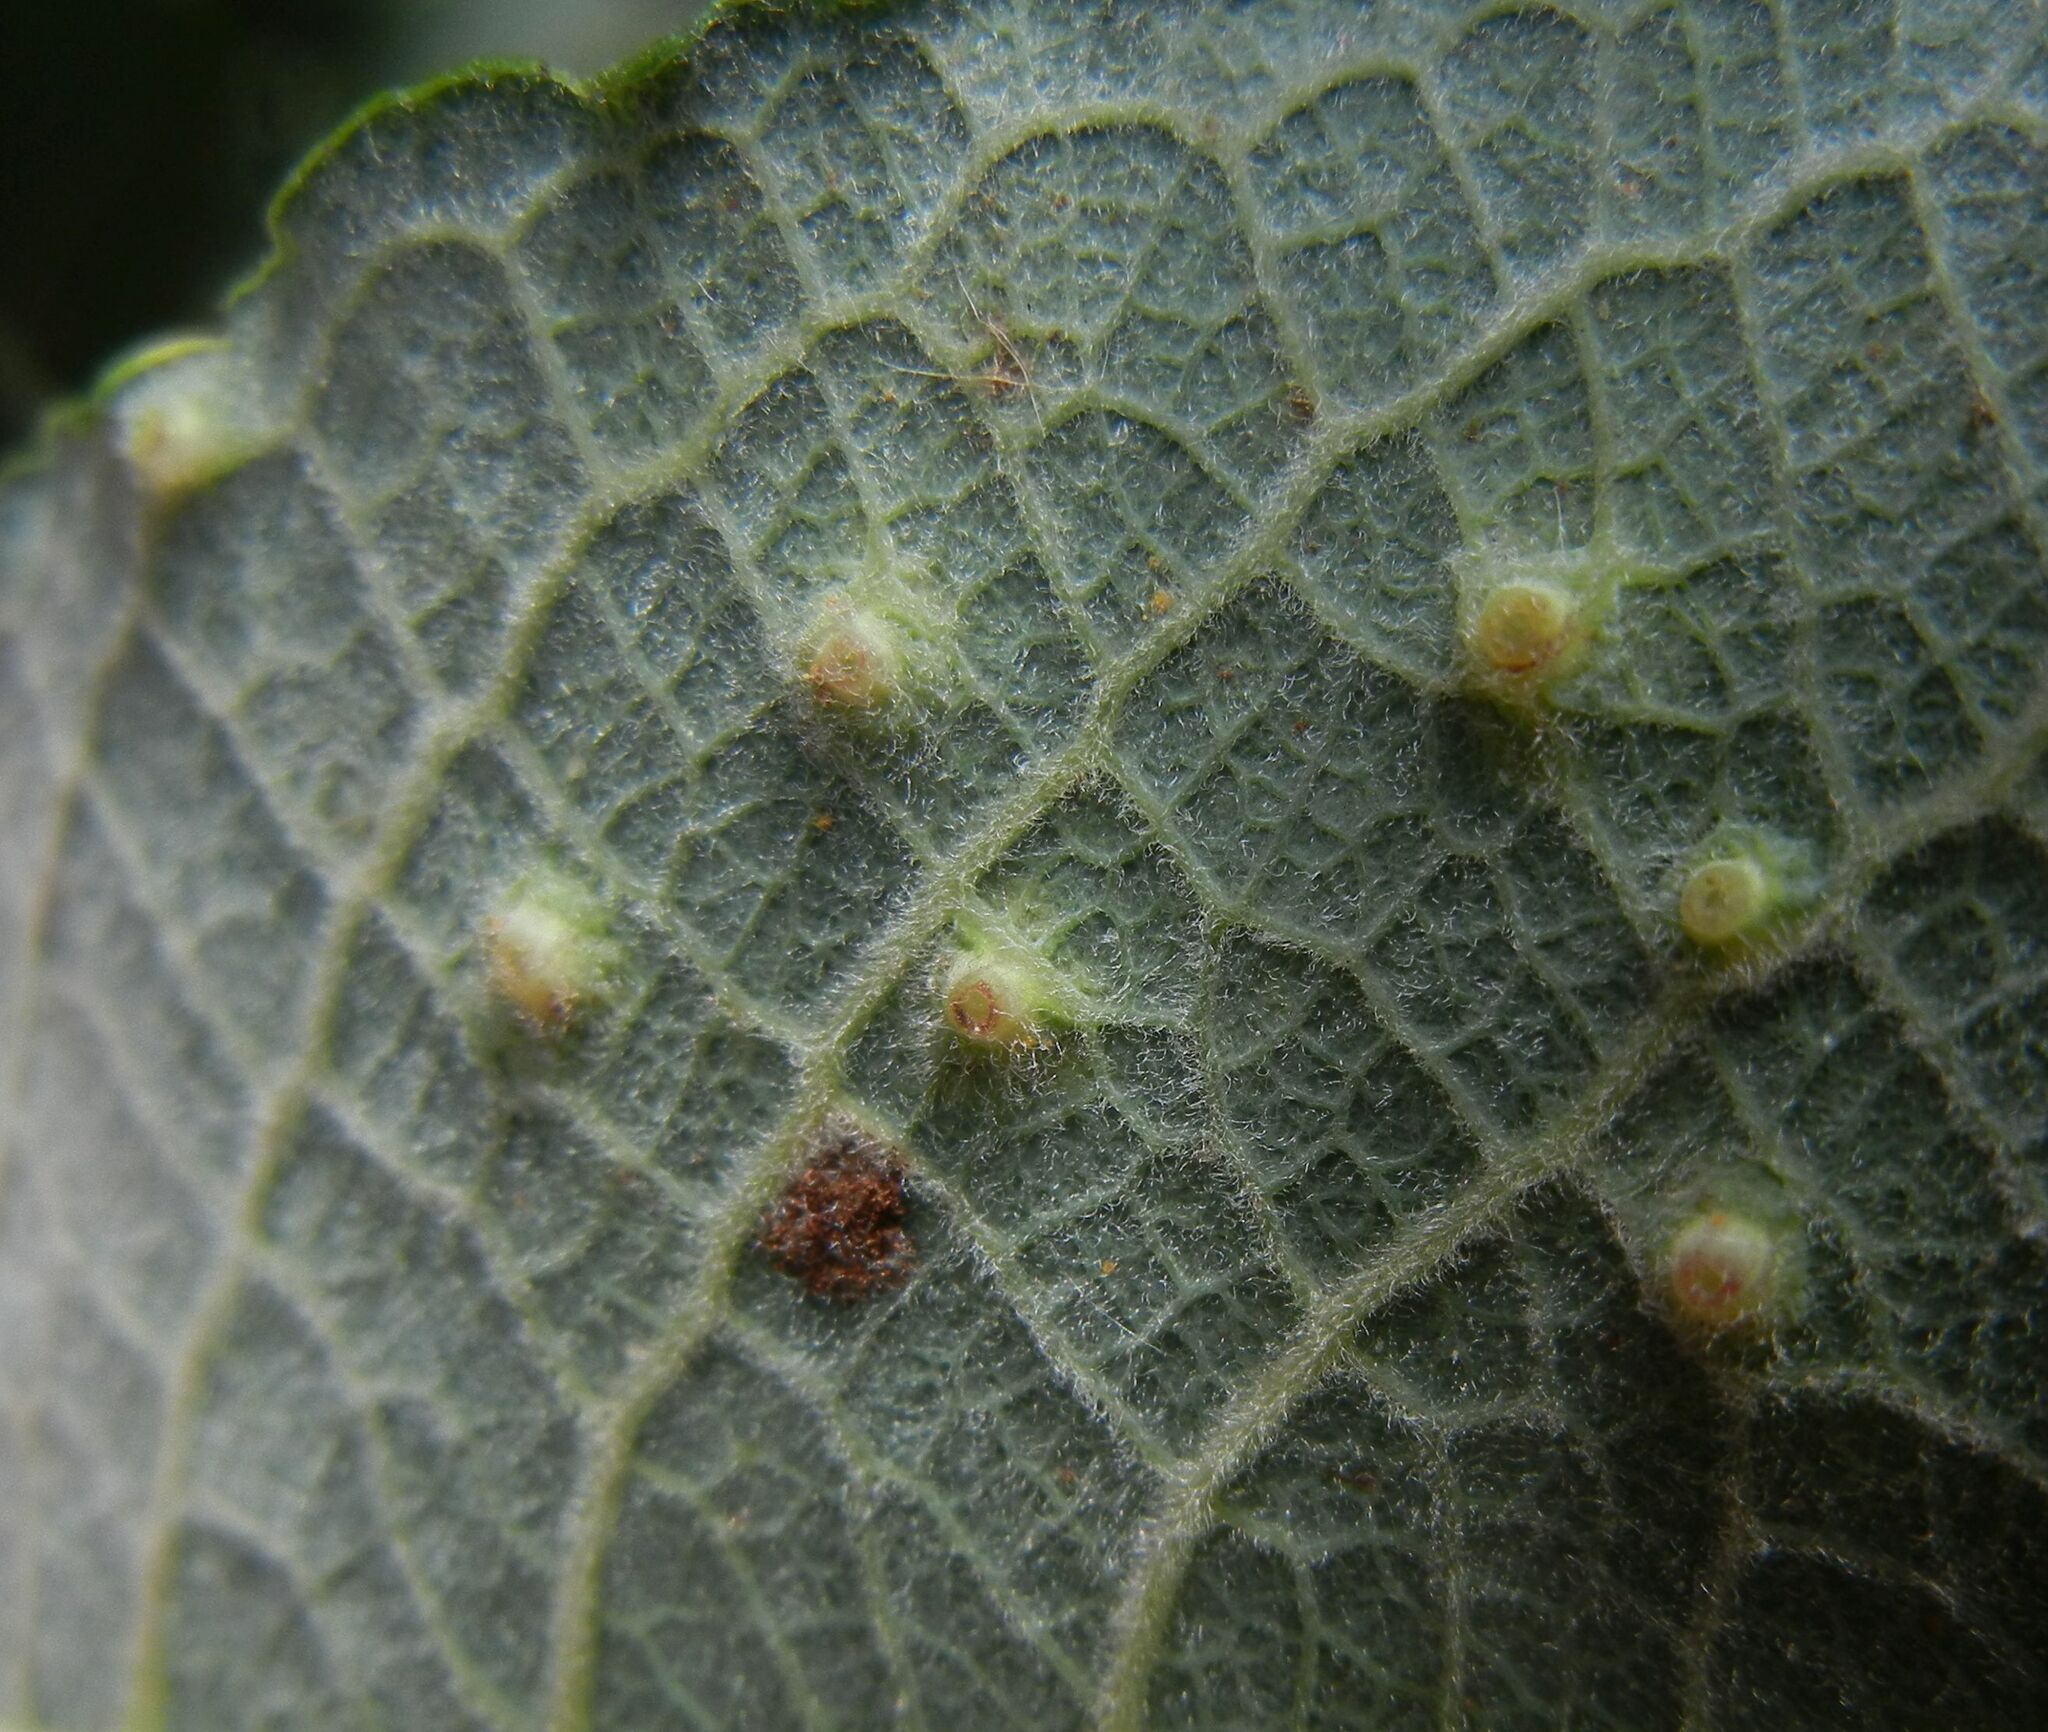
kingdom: Animalia
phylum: Arthropoda
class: Insecta
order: Diptera
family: Cecidomyiidae
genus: Iteomyia
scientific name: Iteomyia capreae
